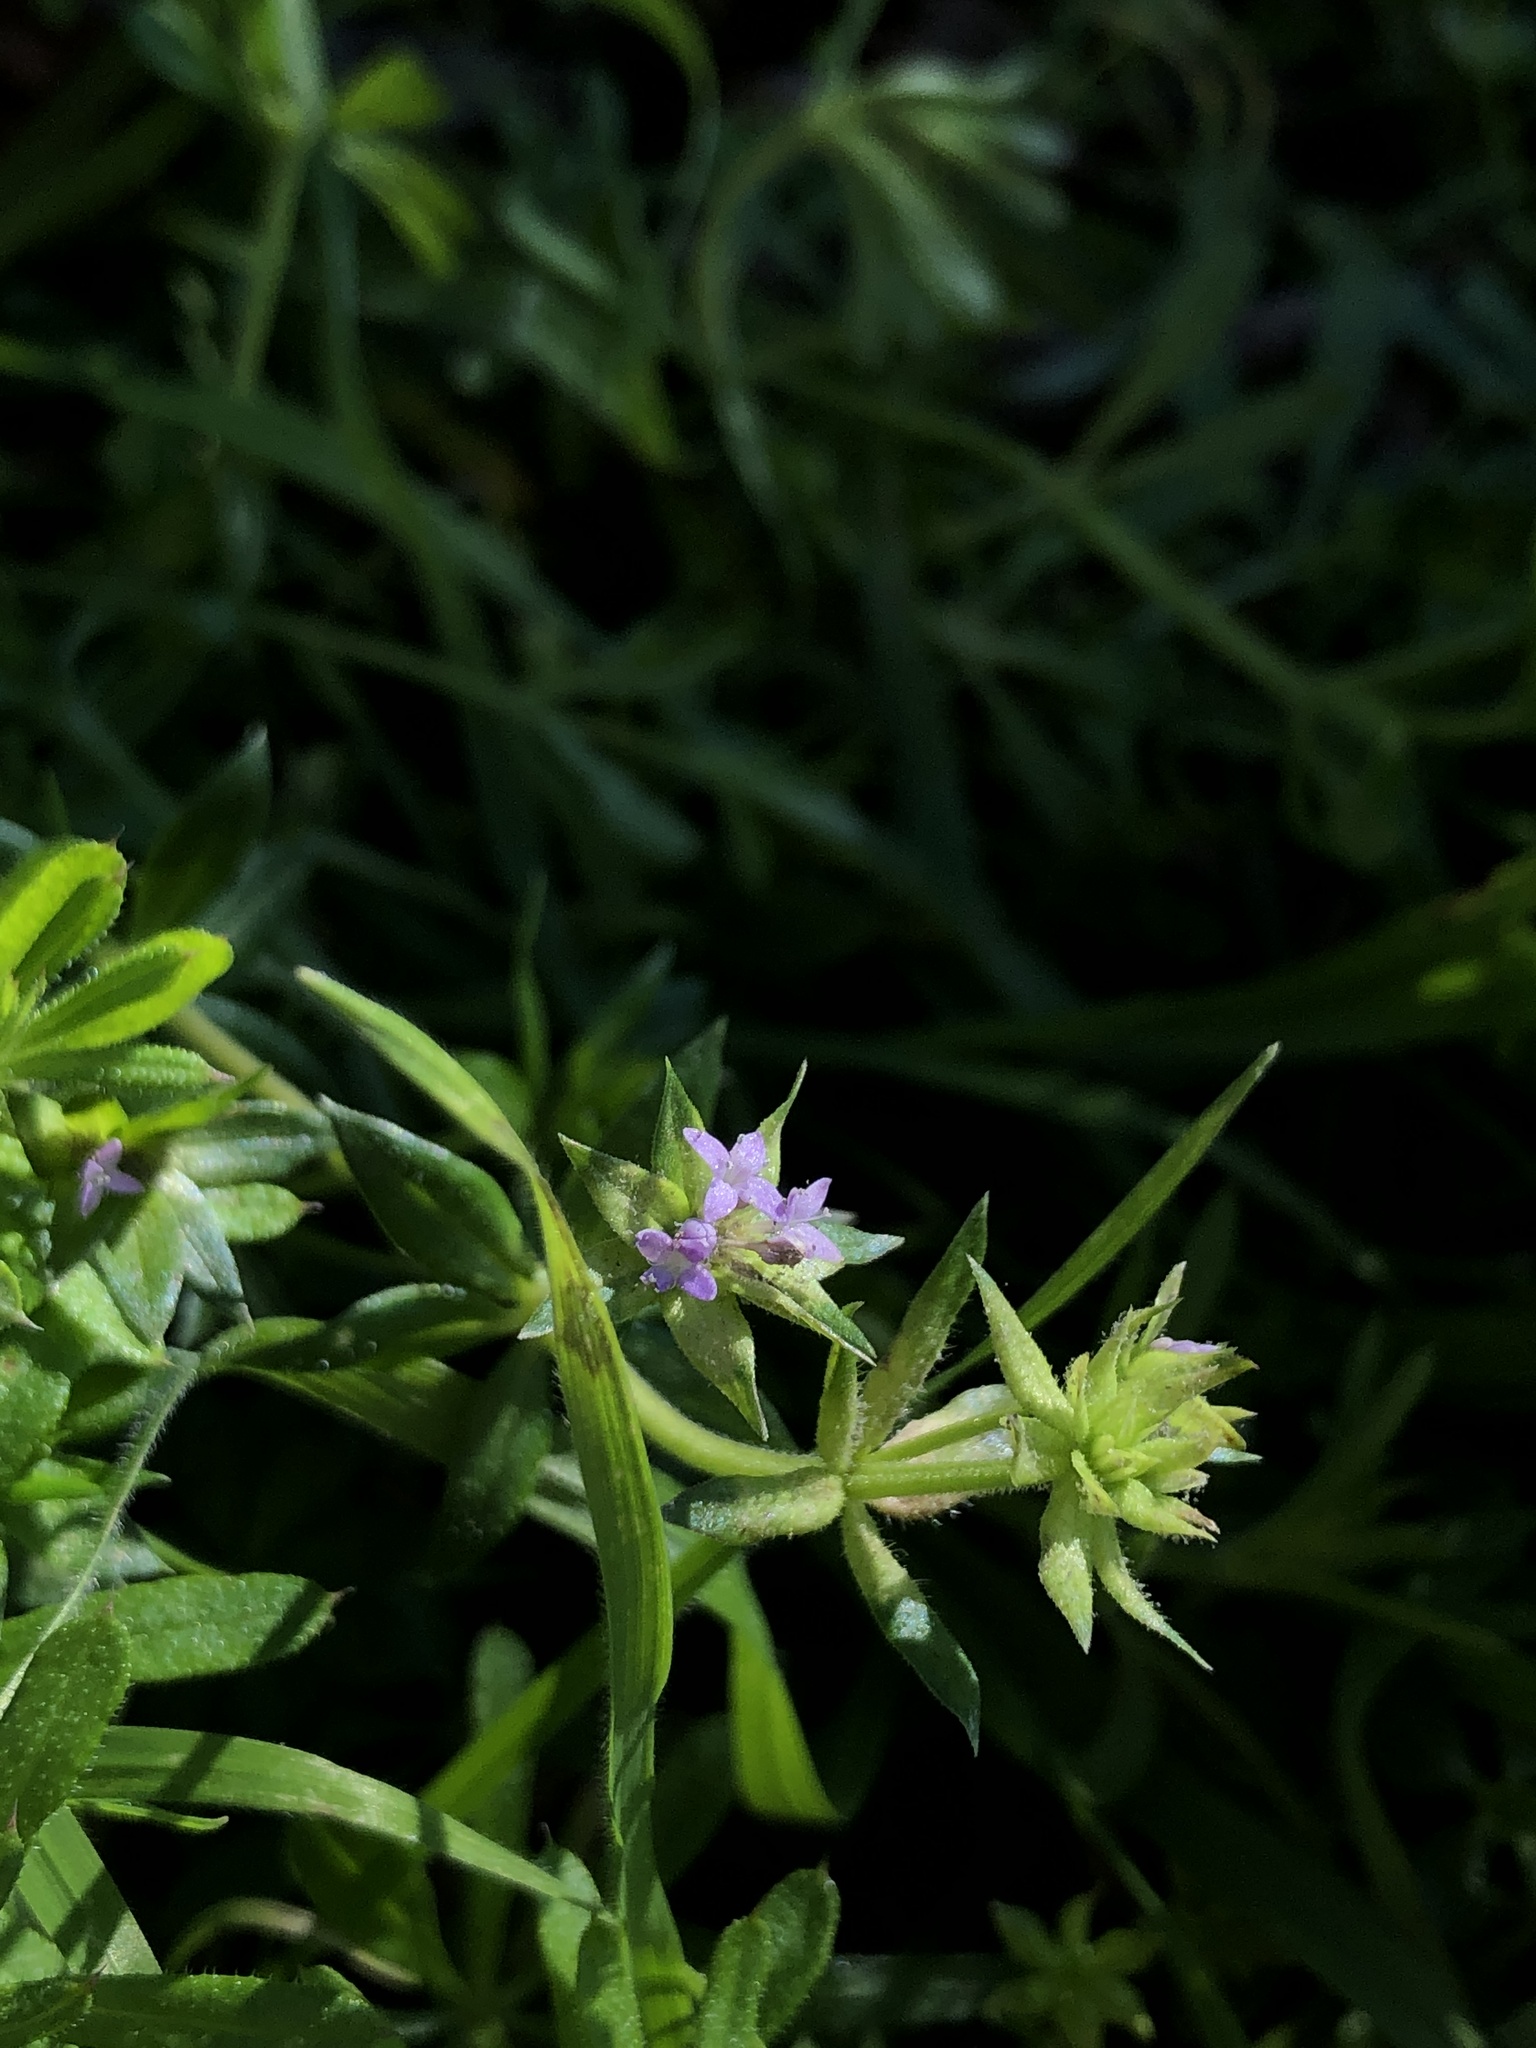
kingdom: Plantae
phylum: Tracheophyta
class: Magnoliopsida
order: Gentianales
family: Rubiaceae
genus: Sherardia
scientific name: Sherardia arvensis
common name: Field madder
